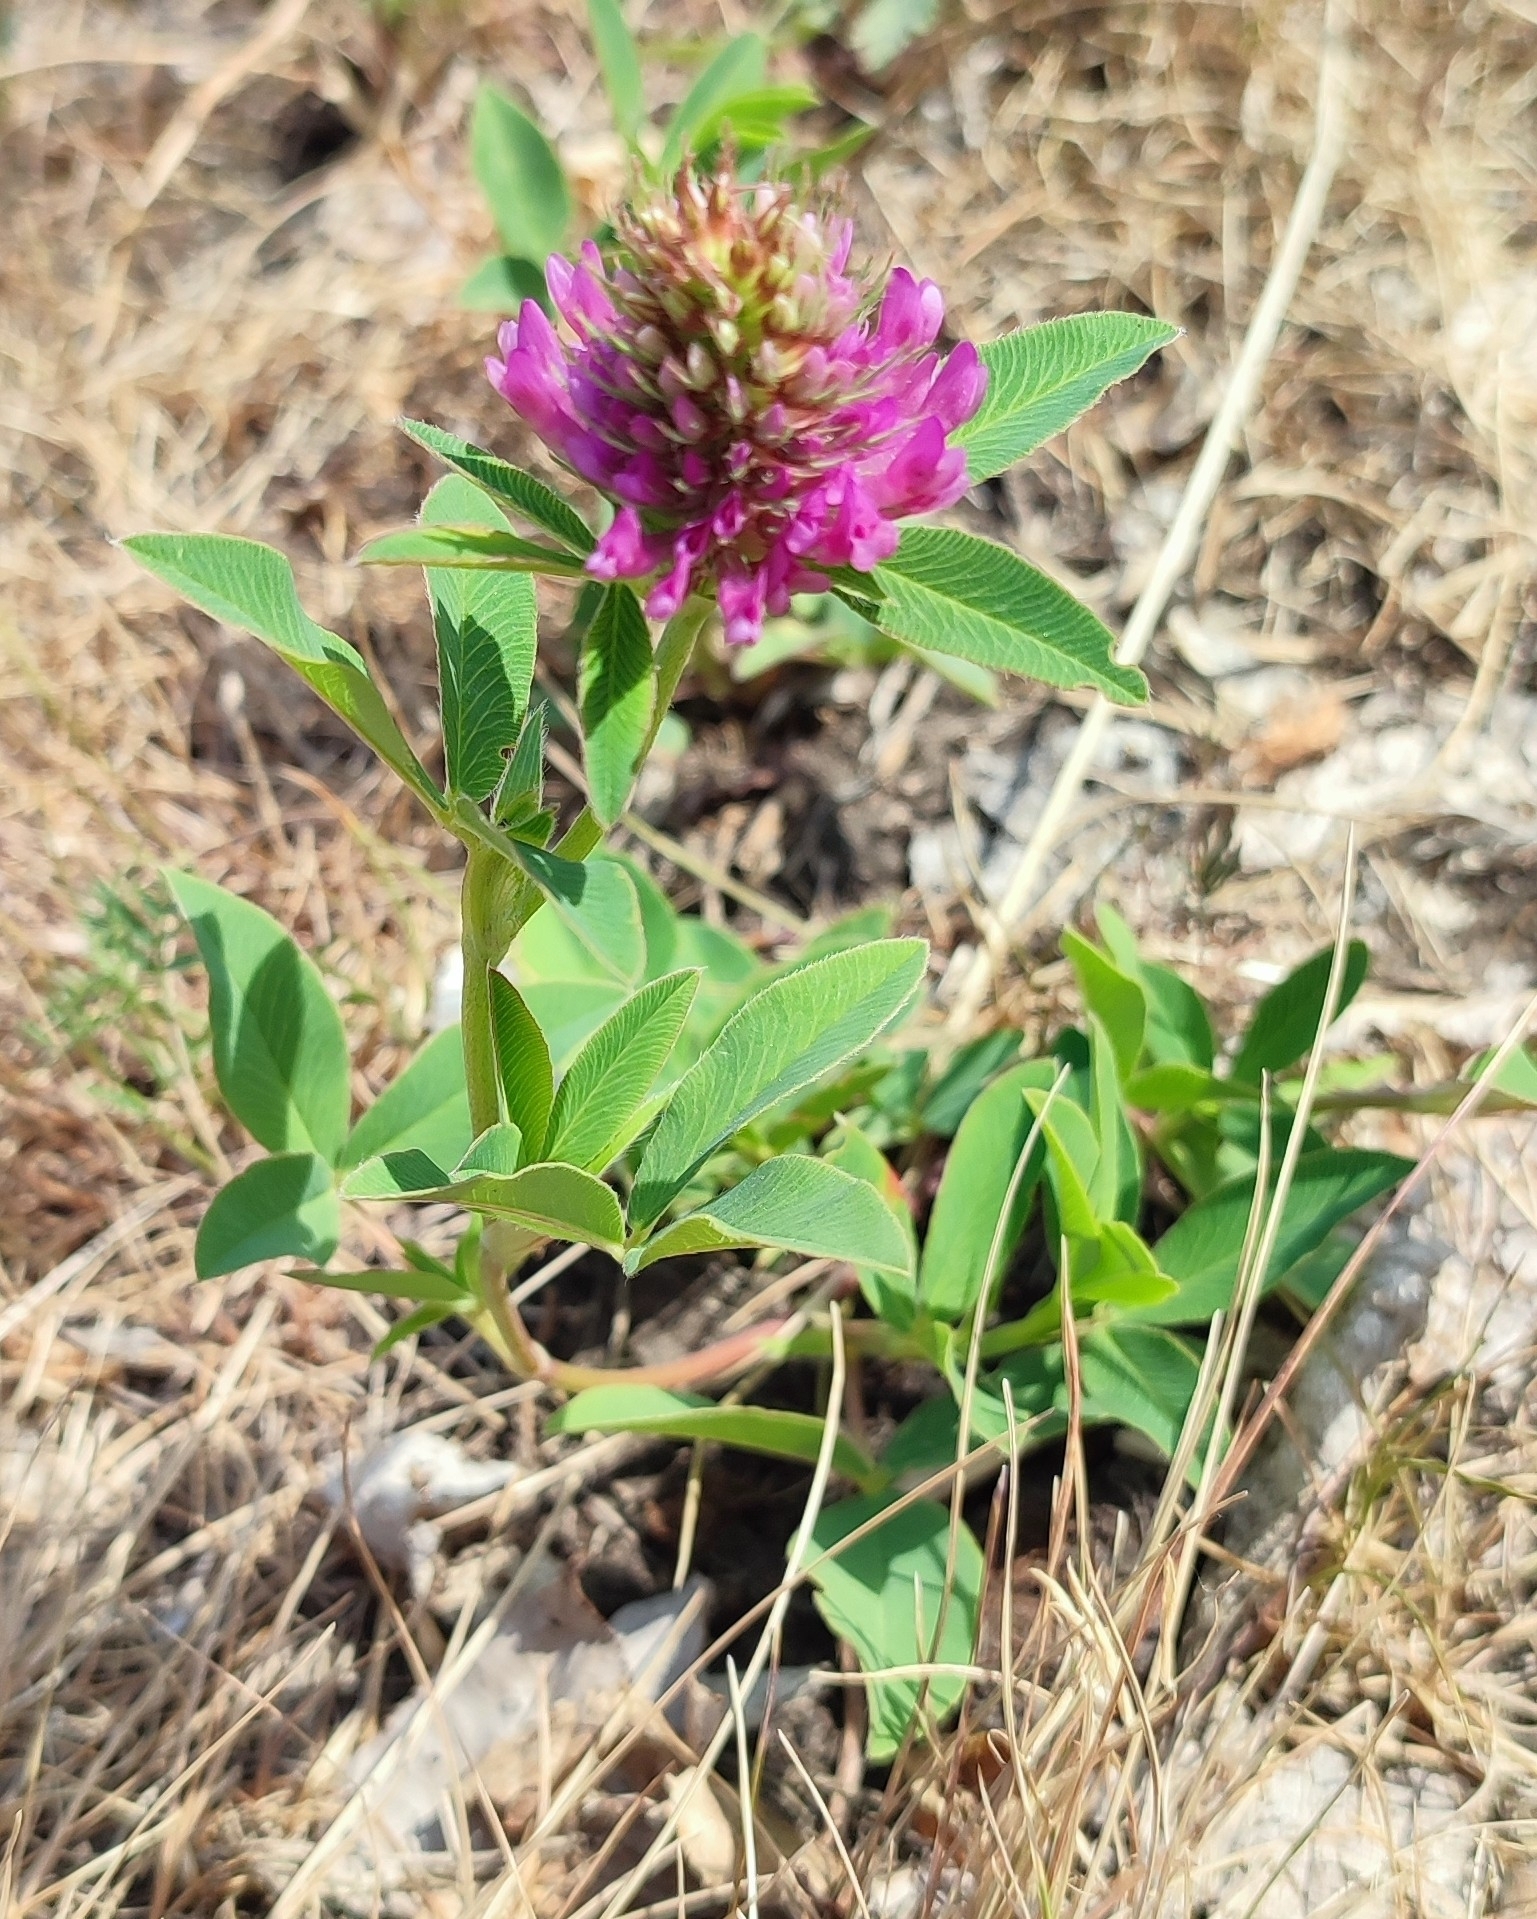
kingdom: Plantae
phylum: Tracheophyta
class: Magnoliopsida
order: Fabales
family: Fabaceae
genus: Trifolium
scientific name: Trifolium medium
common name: Zigzag clover
